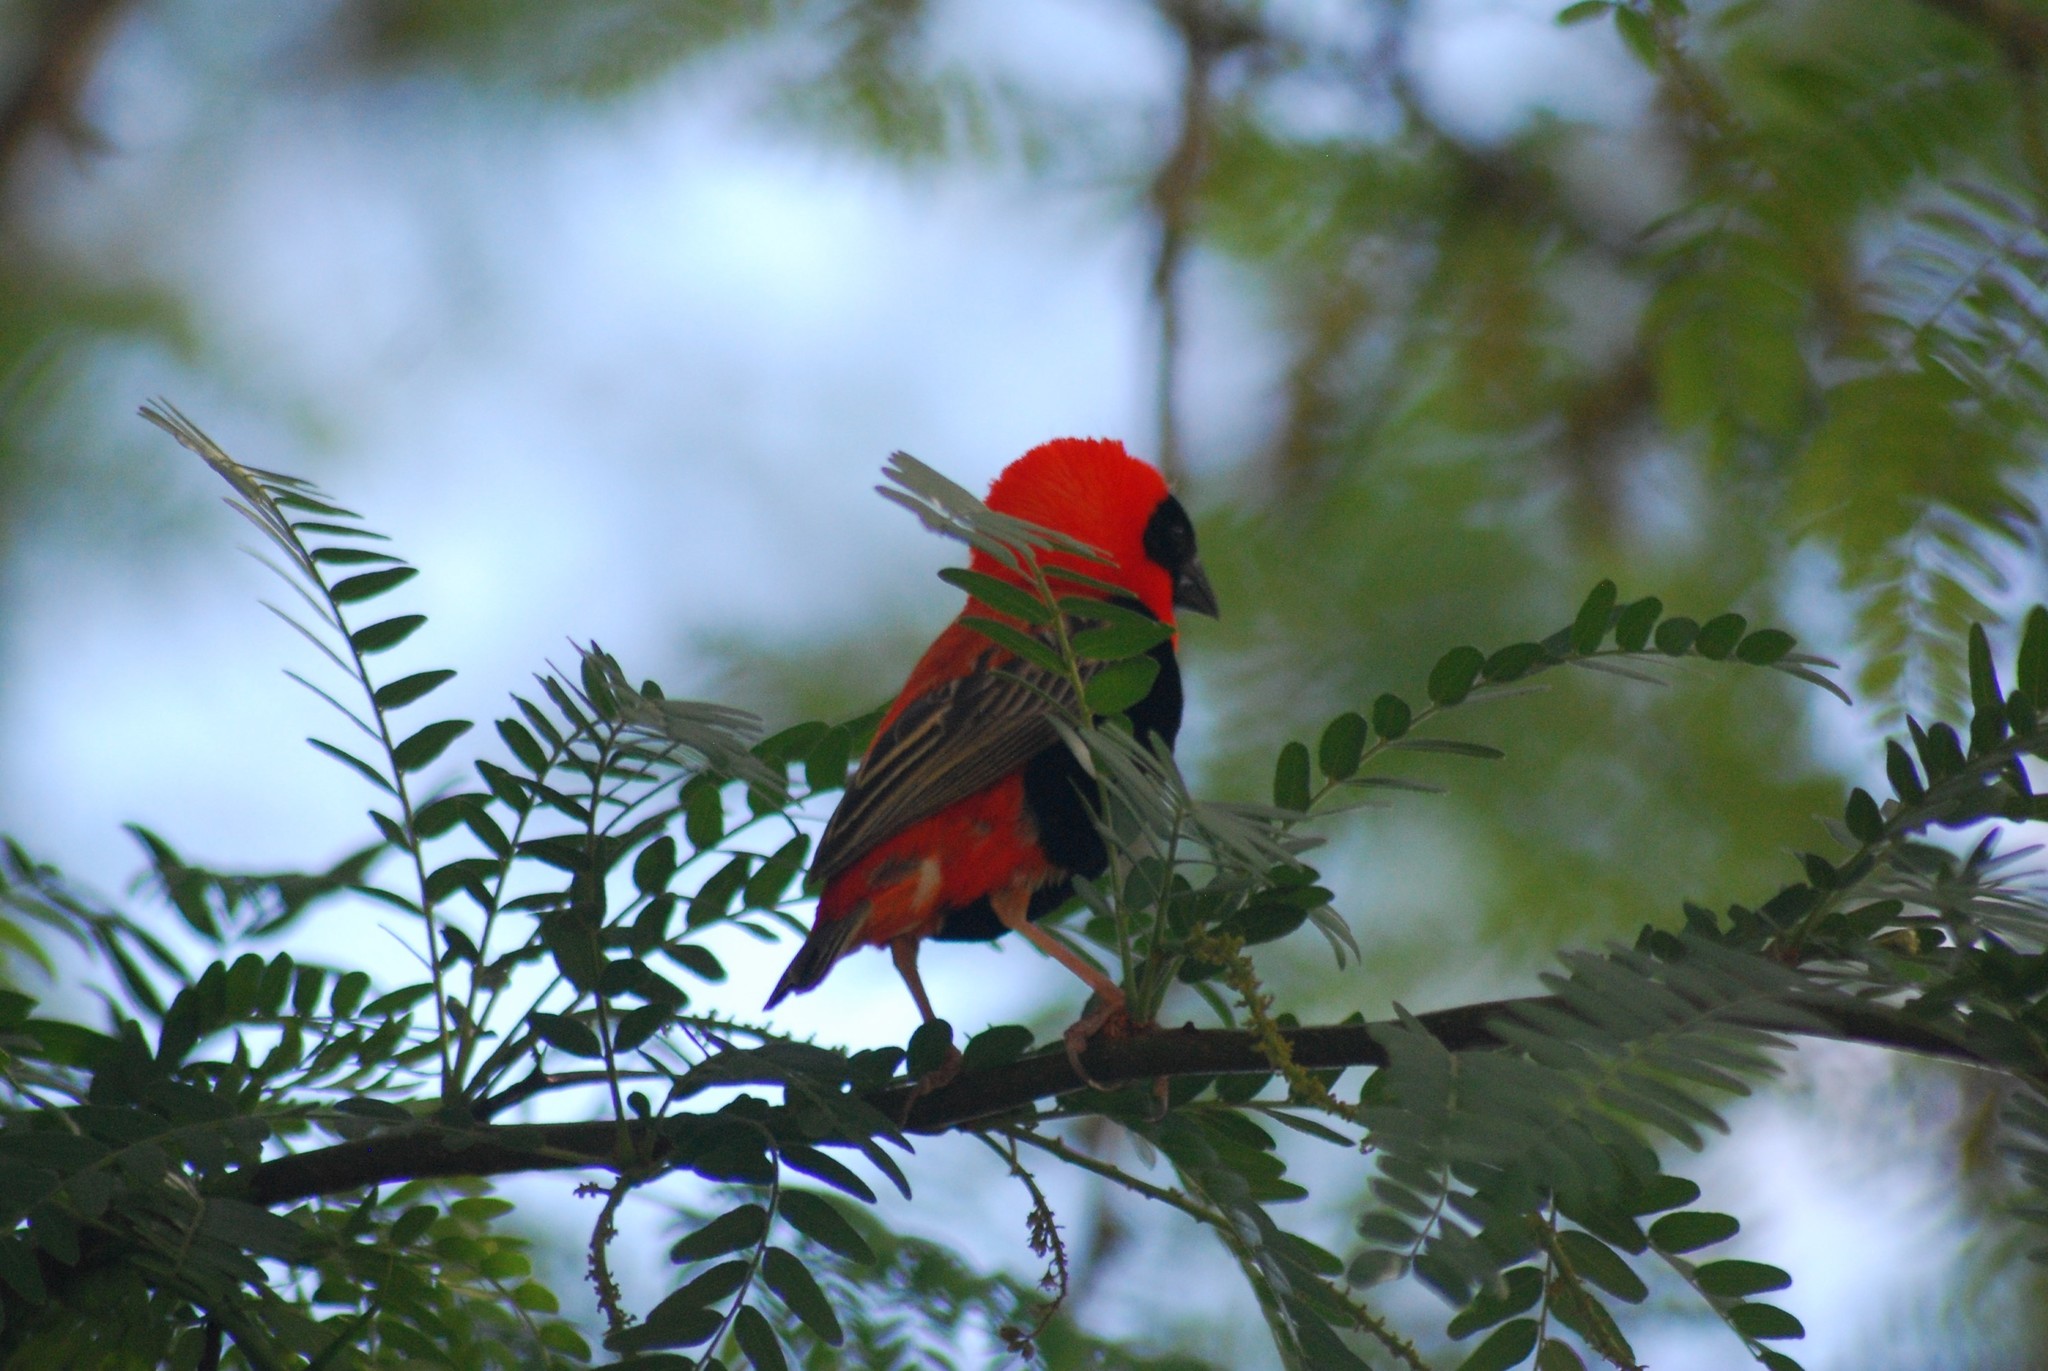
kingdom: Animalia
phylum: Chordata
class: Aves
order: Passeriformes
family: Ploceidae
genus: Euplectes
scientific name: Euplectes orix
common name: Southern red bishop
